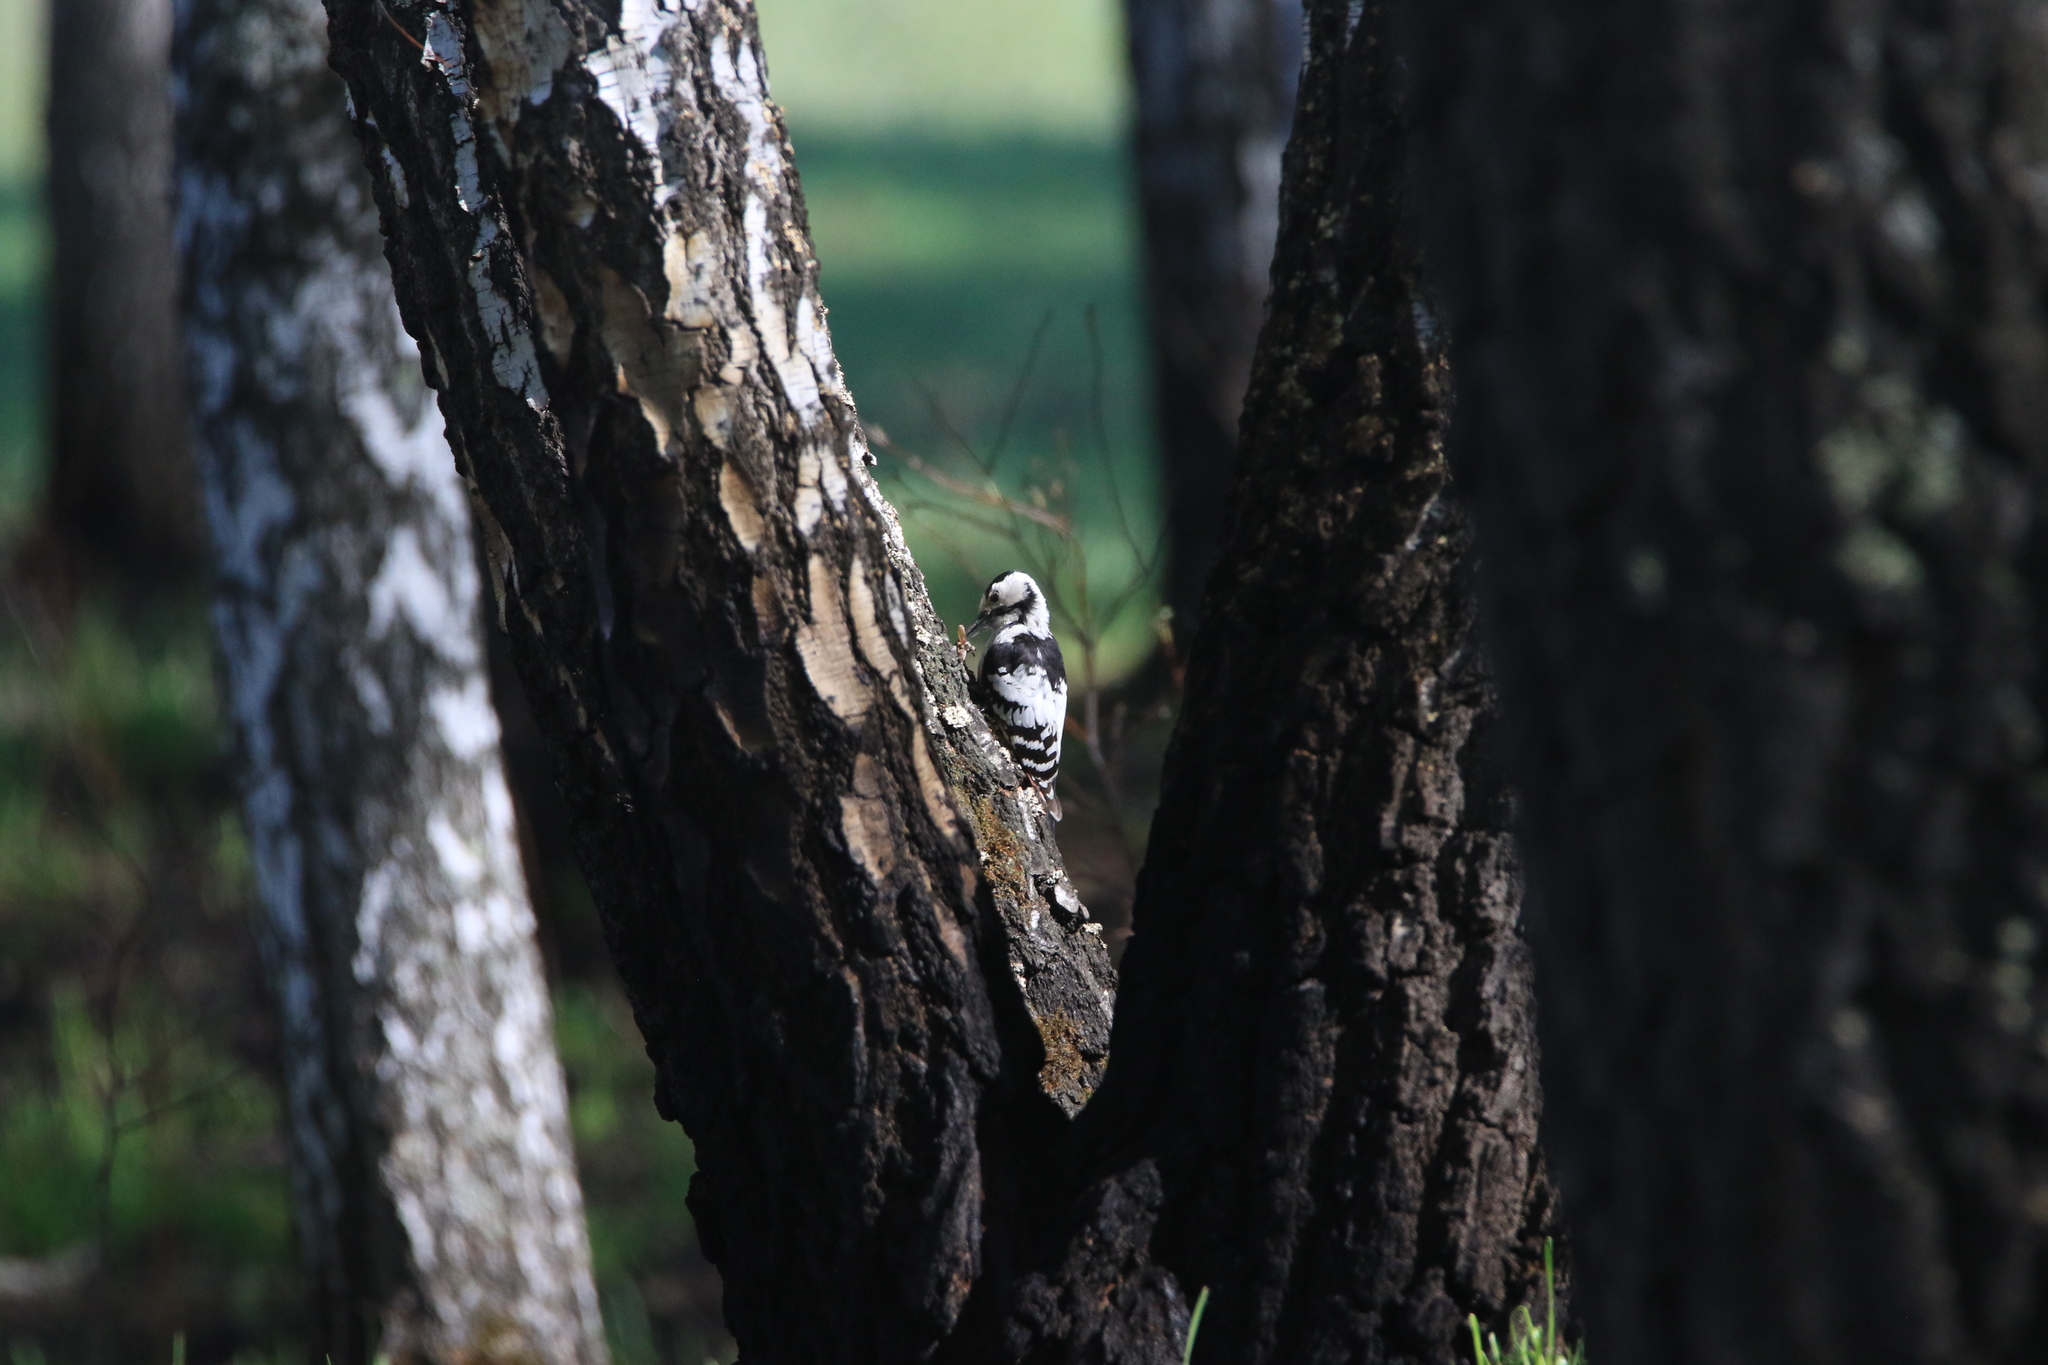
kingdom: Animalia
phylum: Chordata
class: Aves
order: Piciformes
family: Picidae
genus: Dendrocopos
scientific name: Dendrocopos leucotos
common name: White-backed woodpecker
